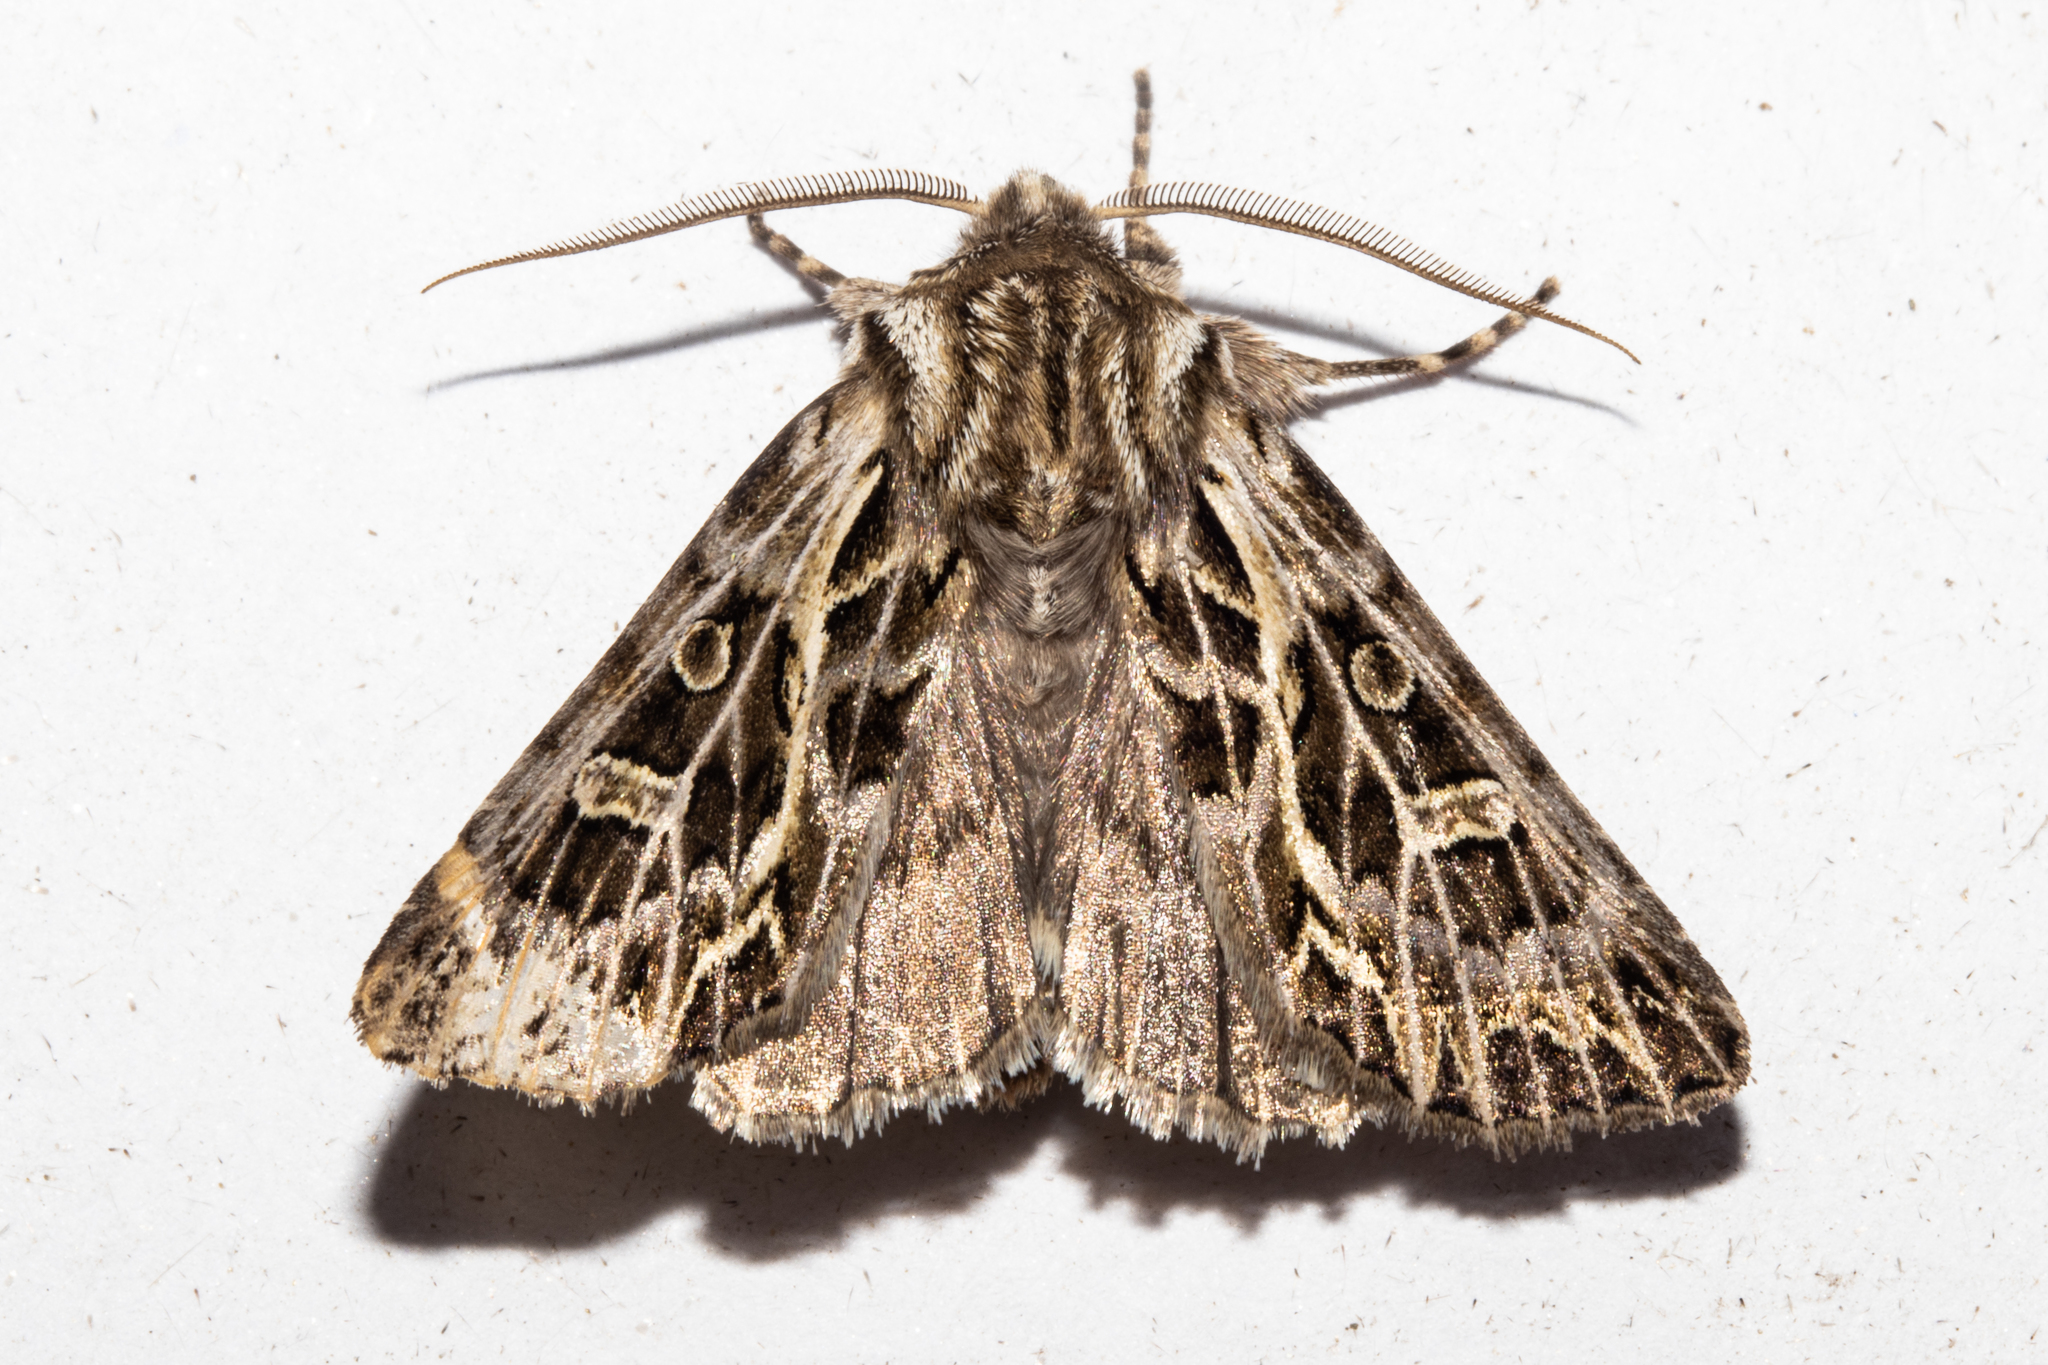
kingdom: Animalia
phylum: Arthropoda
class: Insecta
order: Lepidoptera
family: Noctuidae
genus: Ichneutica
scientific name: Ichneutica
